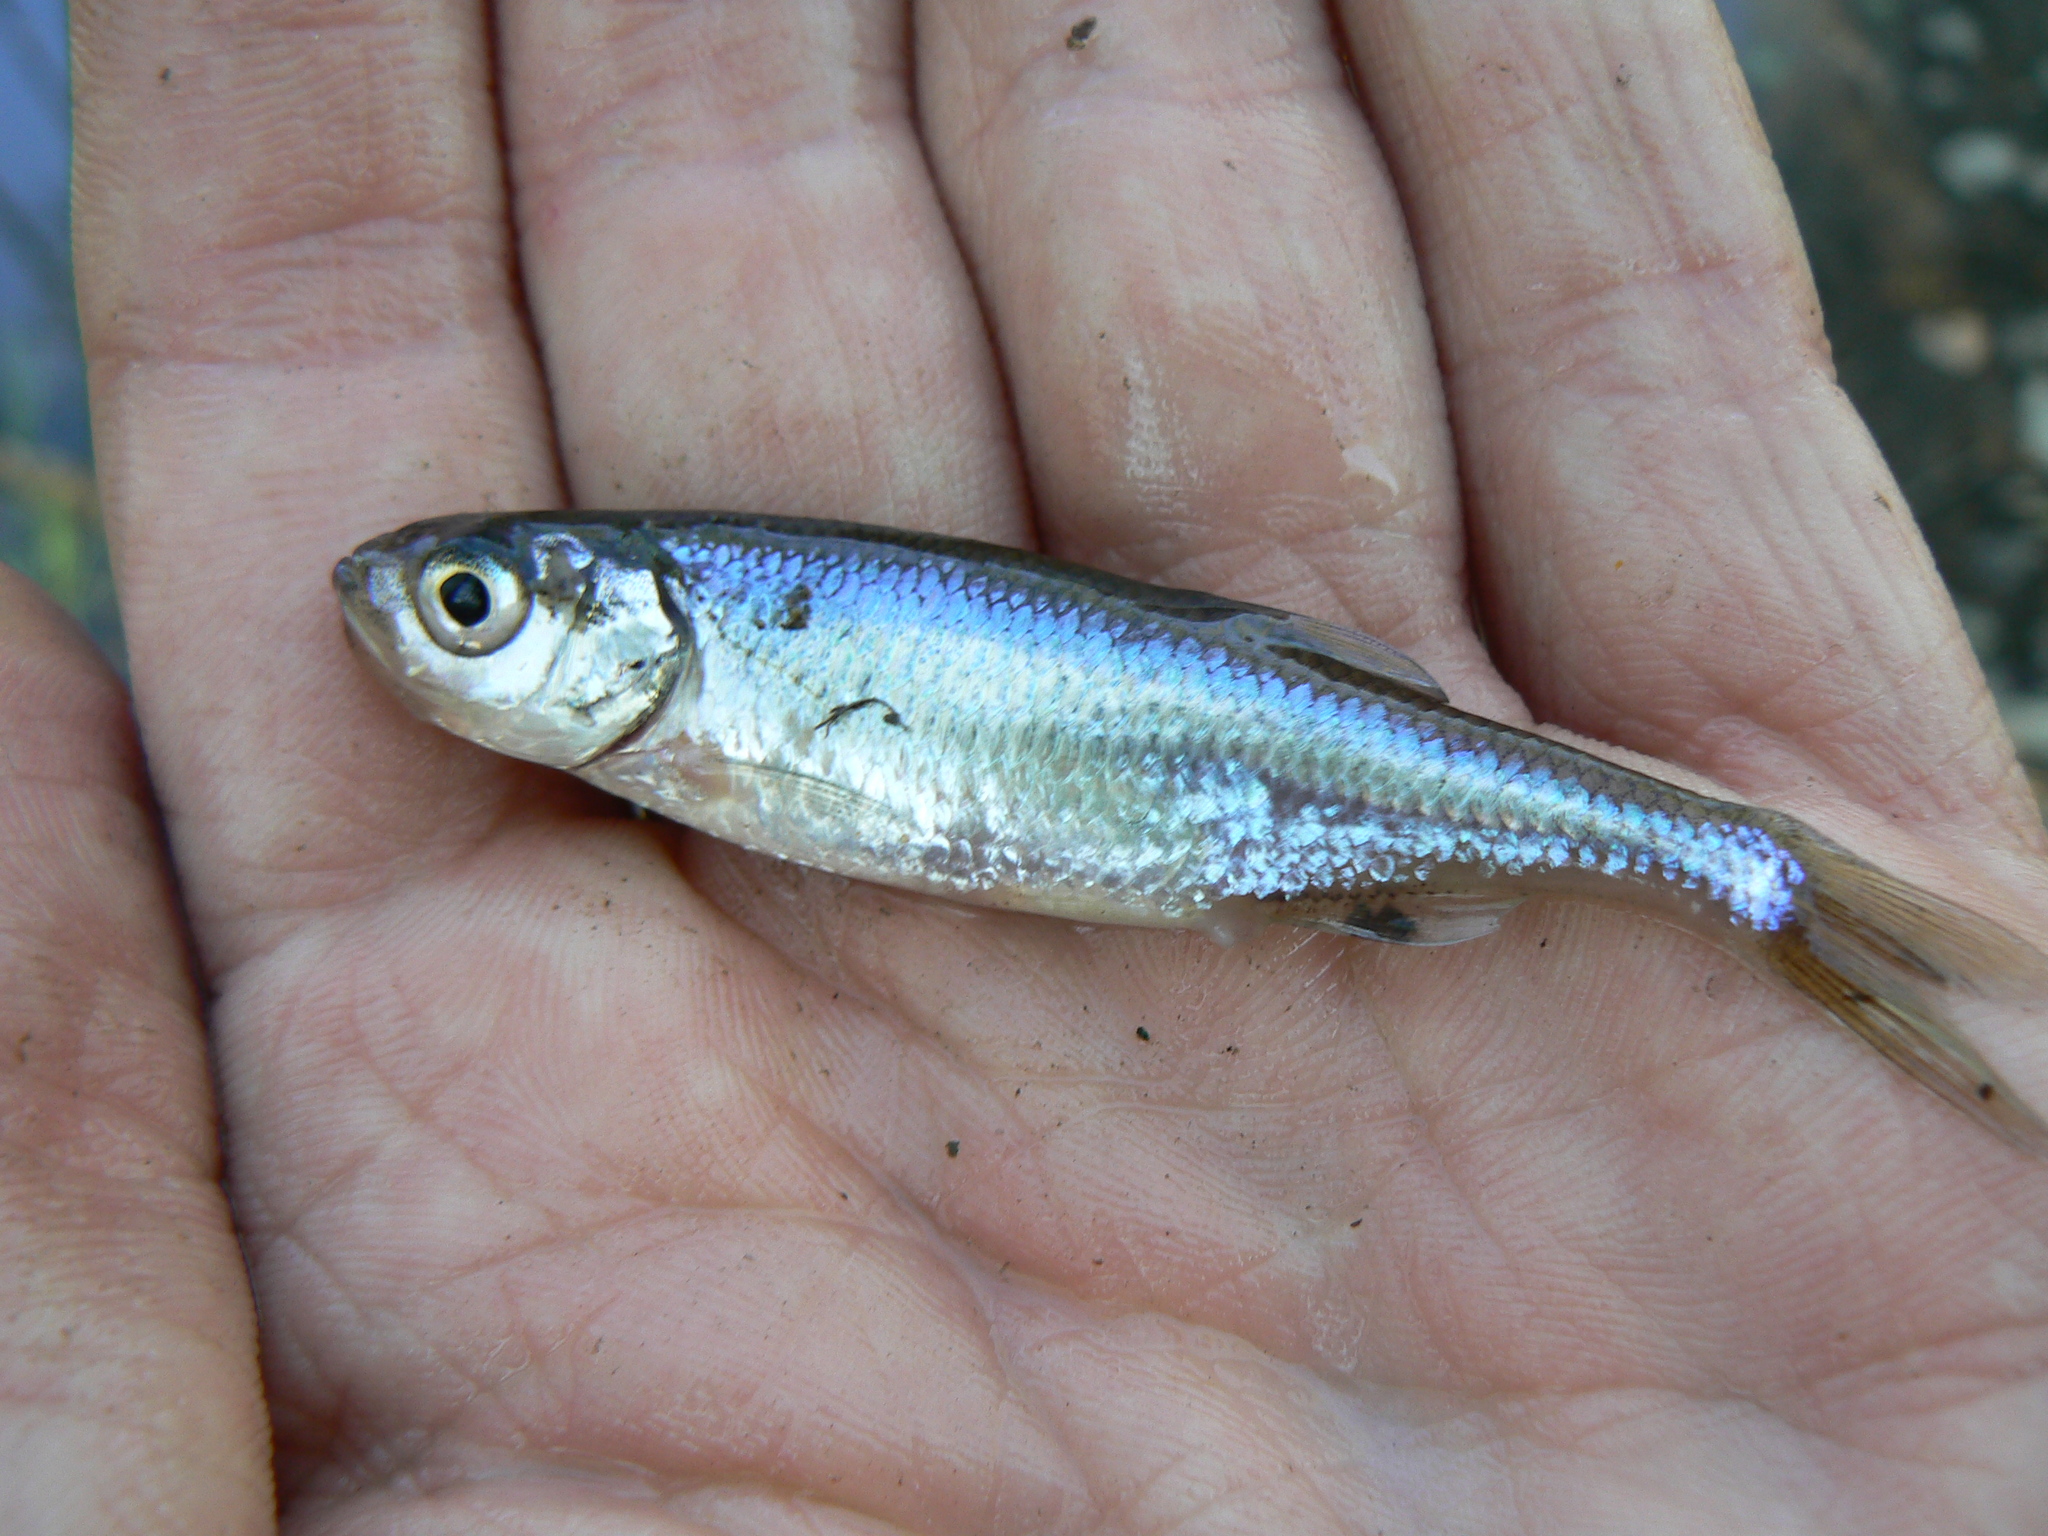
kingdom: Animalia
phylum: Chordata
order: Cypriniformes
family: Cyprinidae
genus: Leucaspius
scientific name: Leucaspius delineatus
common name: Sunbleak
